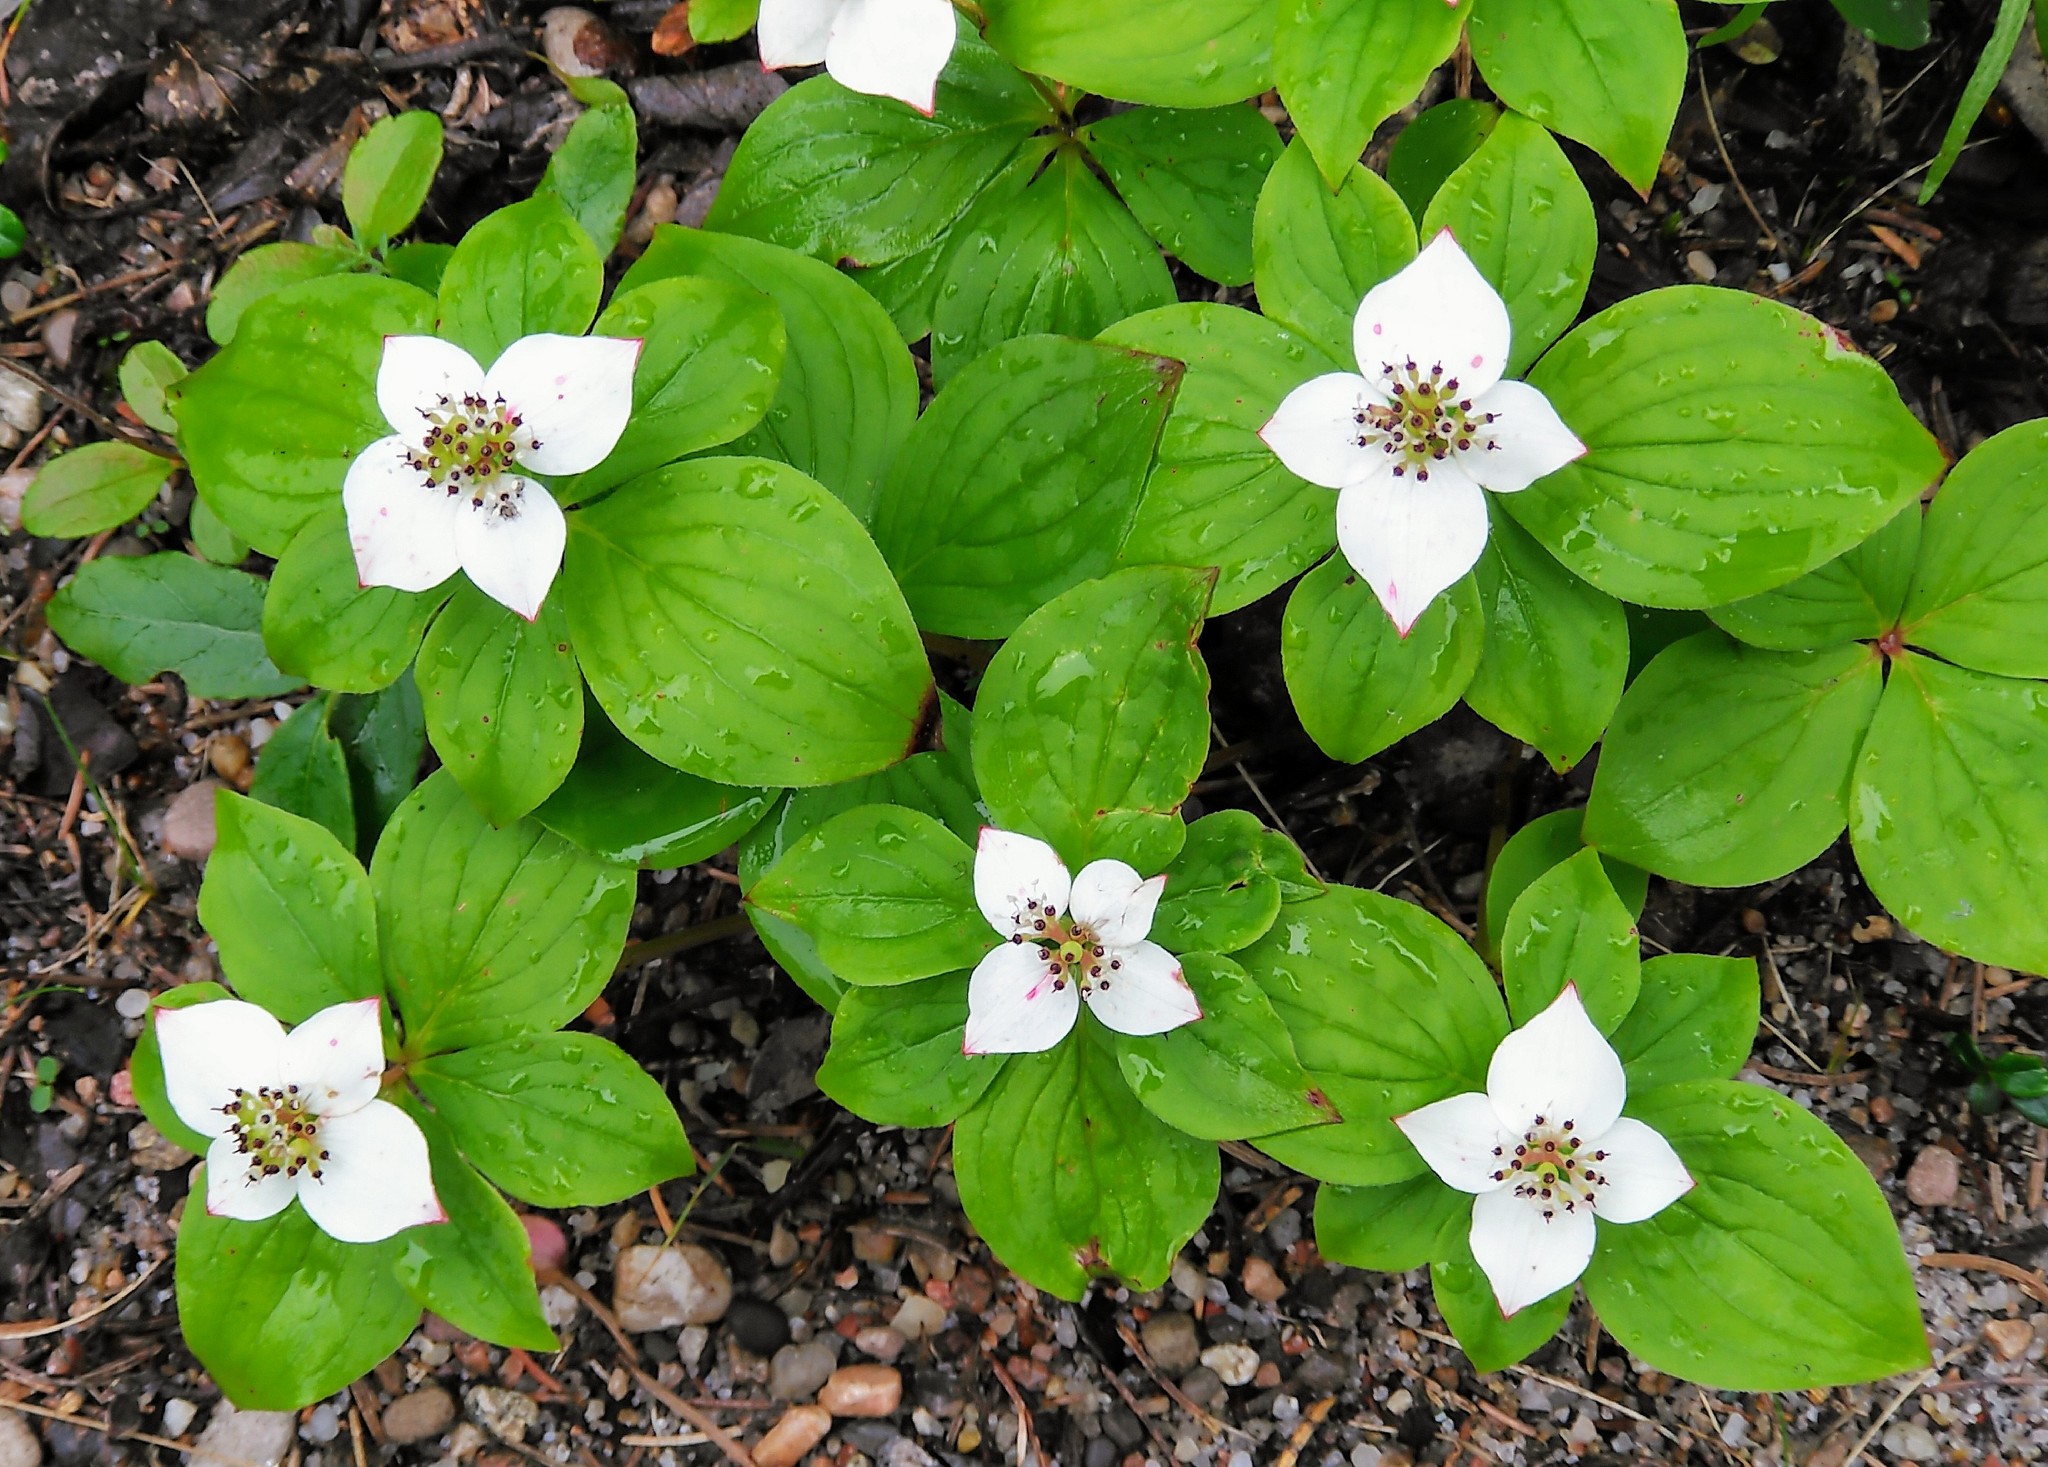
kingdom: Plantae
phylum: Tracheophyta
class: Magnoliopsida
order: Cornales
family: Cornaceae
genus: Cornus
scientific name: Cornus canadensis
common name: Creeping dogwood
